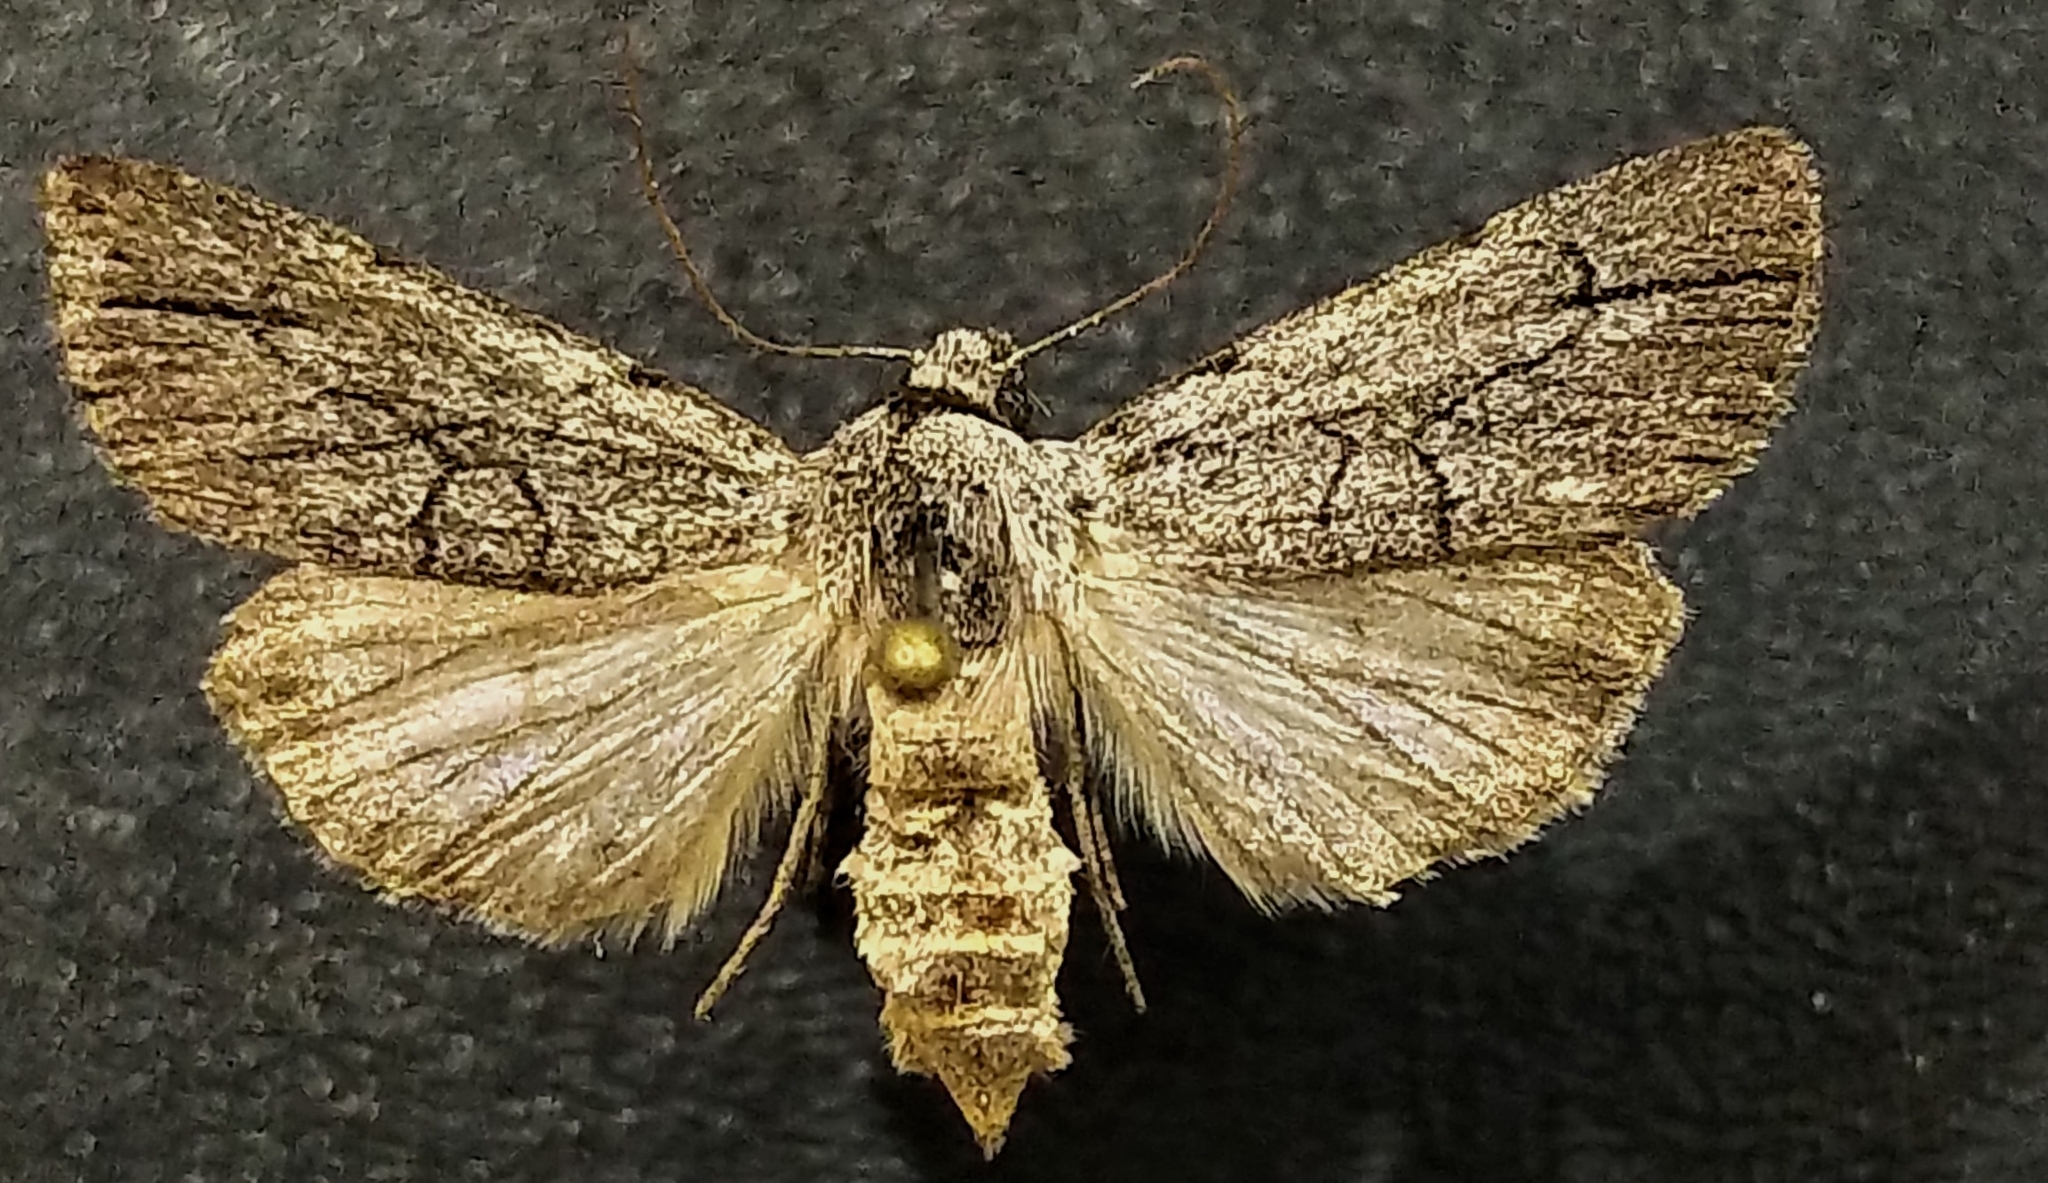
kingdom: Animalia
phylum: Arthropoda
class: Insecta
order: Lepidoptera
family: Noctuidae
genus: Sympistis
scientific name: Sympistis semicollaris
